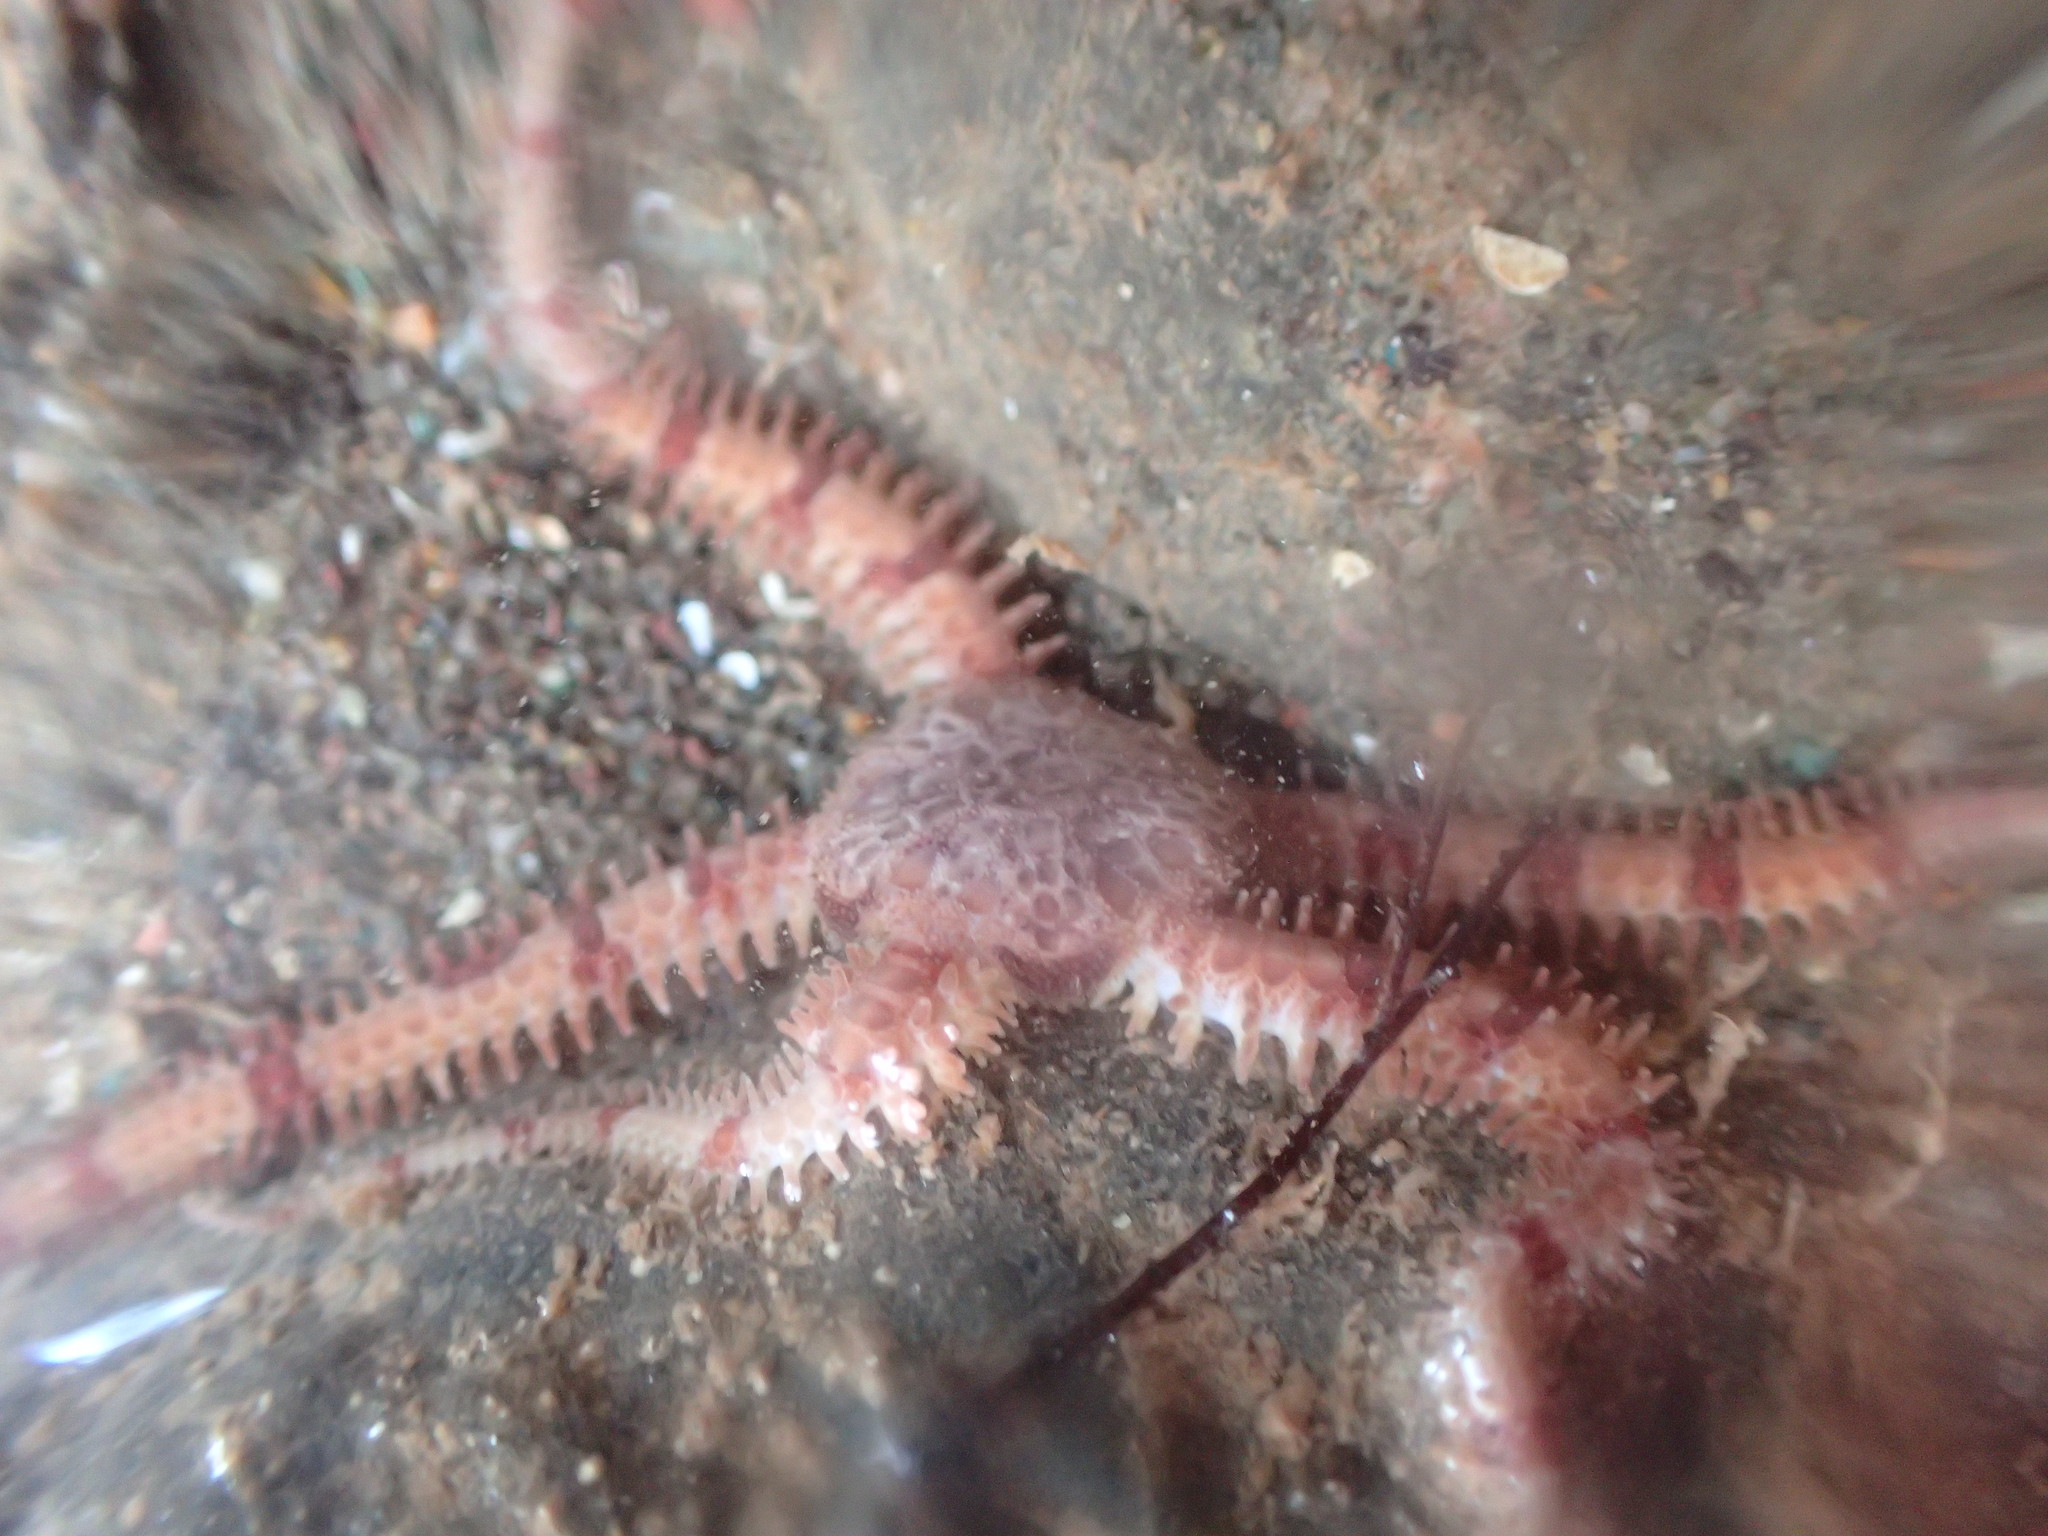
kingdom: Animalia
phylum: Echinodermata
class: Ophiuroidea
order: Amphilepidida
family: Ophiopholidae
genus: Ophiopholis
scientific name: Ophiopholis aculeata
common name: Crevice brittlestar
